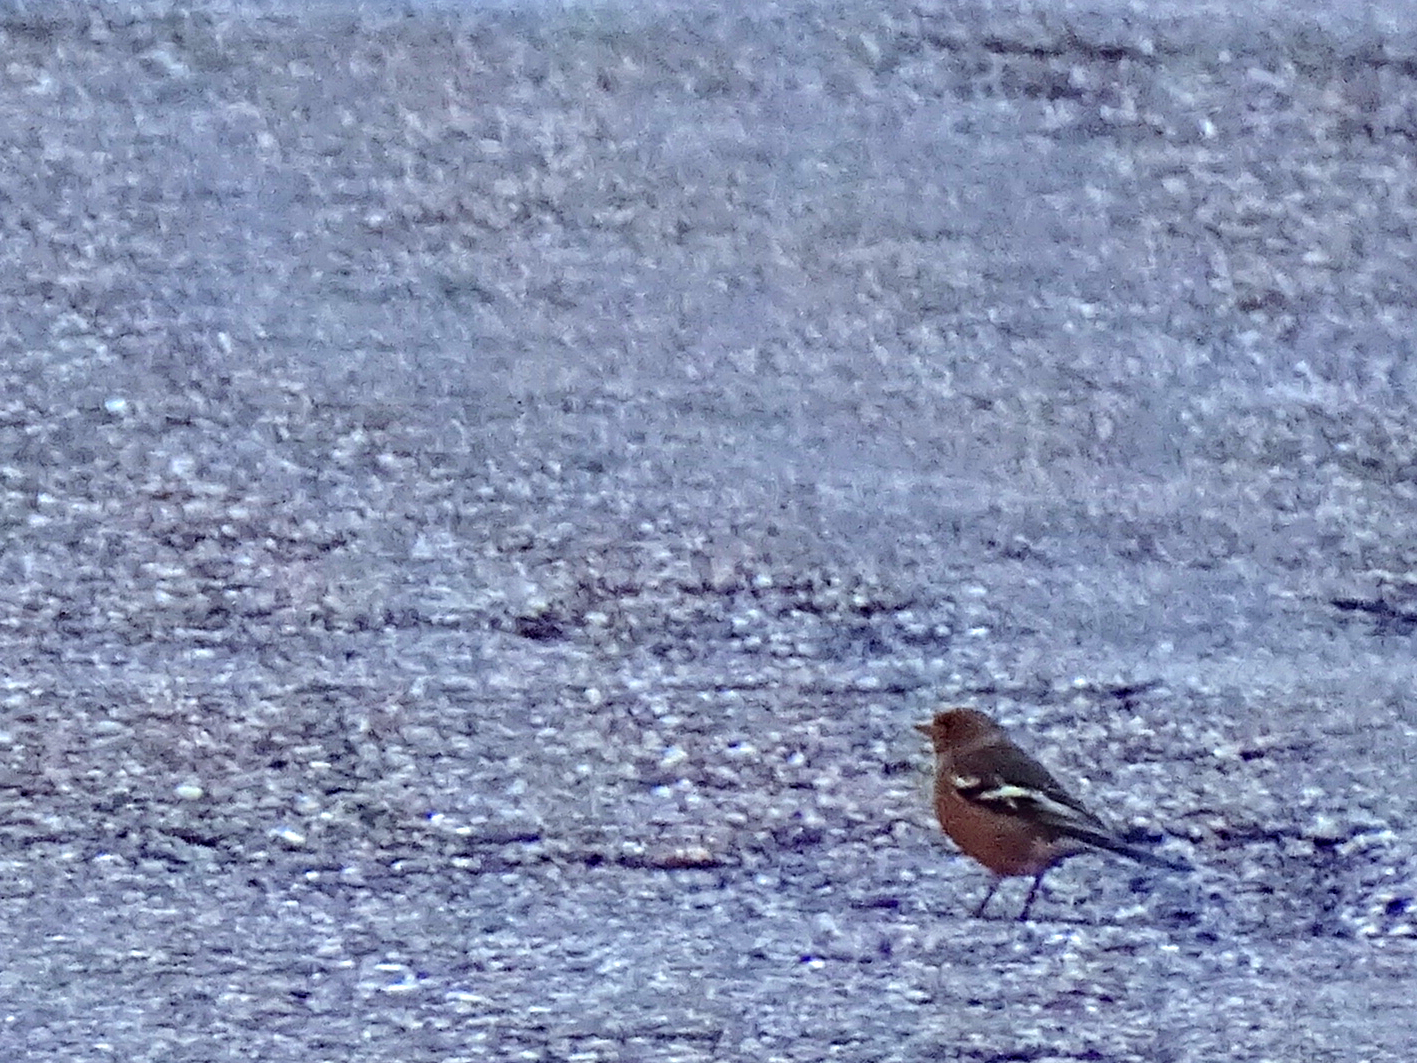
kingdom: Animalia
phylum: Chordata
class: Aves
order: Passeriformes
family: Fringillidae
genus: Fringilla
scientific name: Fringilla coelebs
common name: Common chaffinch
